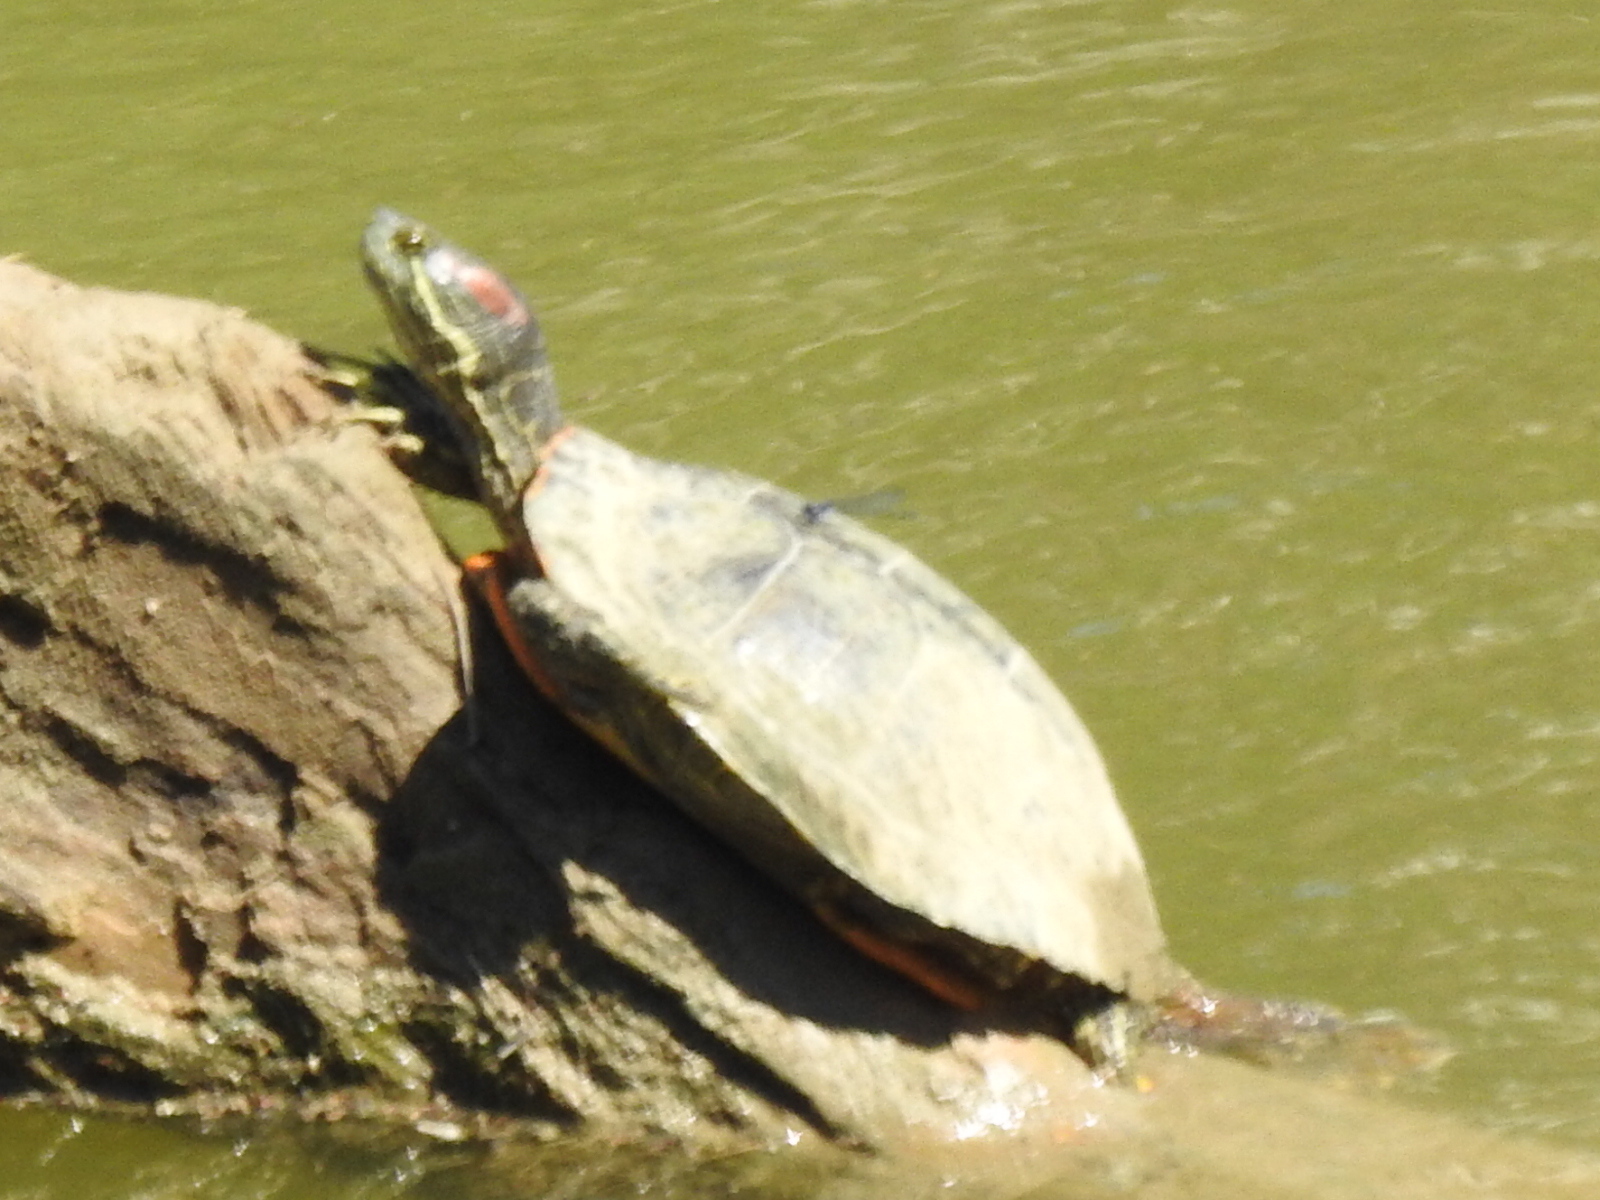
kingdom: Animalia
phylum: Chordata
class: Testudines
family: Emydidae
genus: Trachemys
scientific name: Trachemys scripta
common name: Slider
